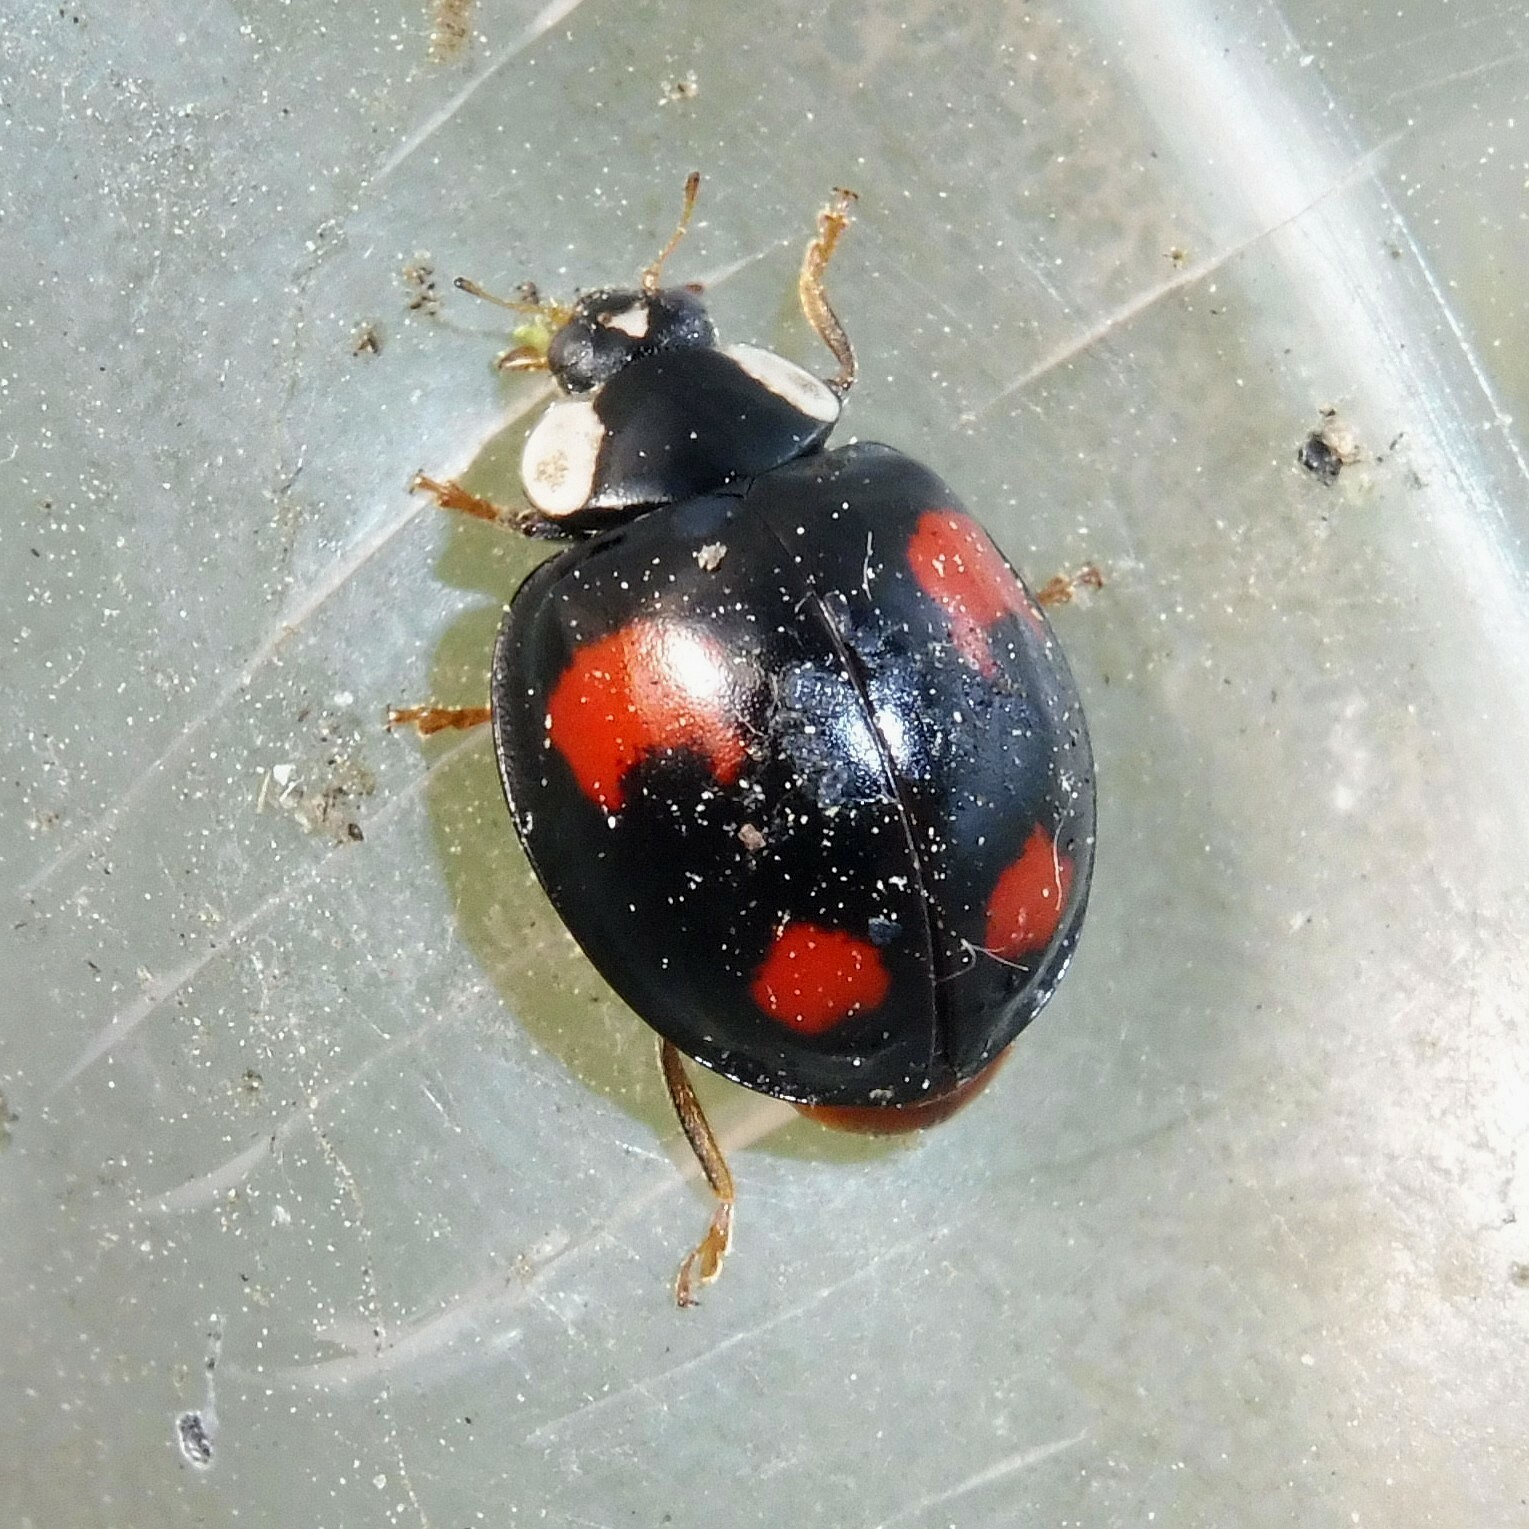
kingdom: Animalia
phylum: Arthropoda
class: Insecta
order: Coleoptera
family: Coccinellidae
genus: Harmonia
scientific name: Harmonia axyridis
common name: Harlequin ladybird
